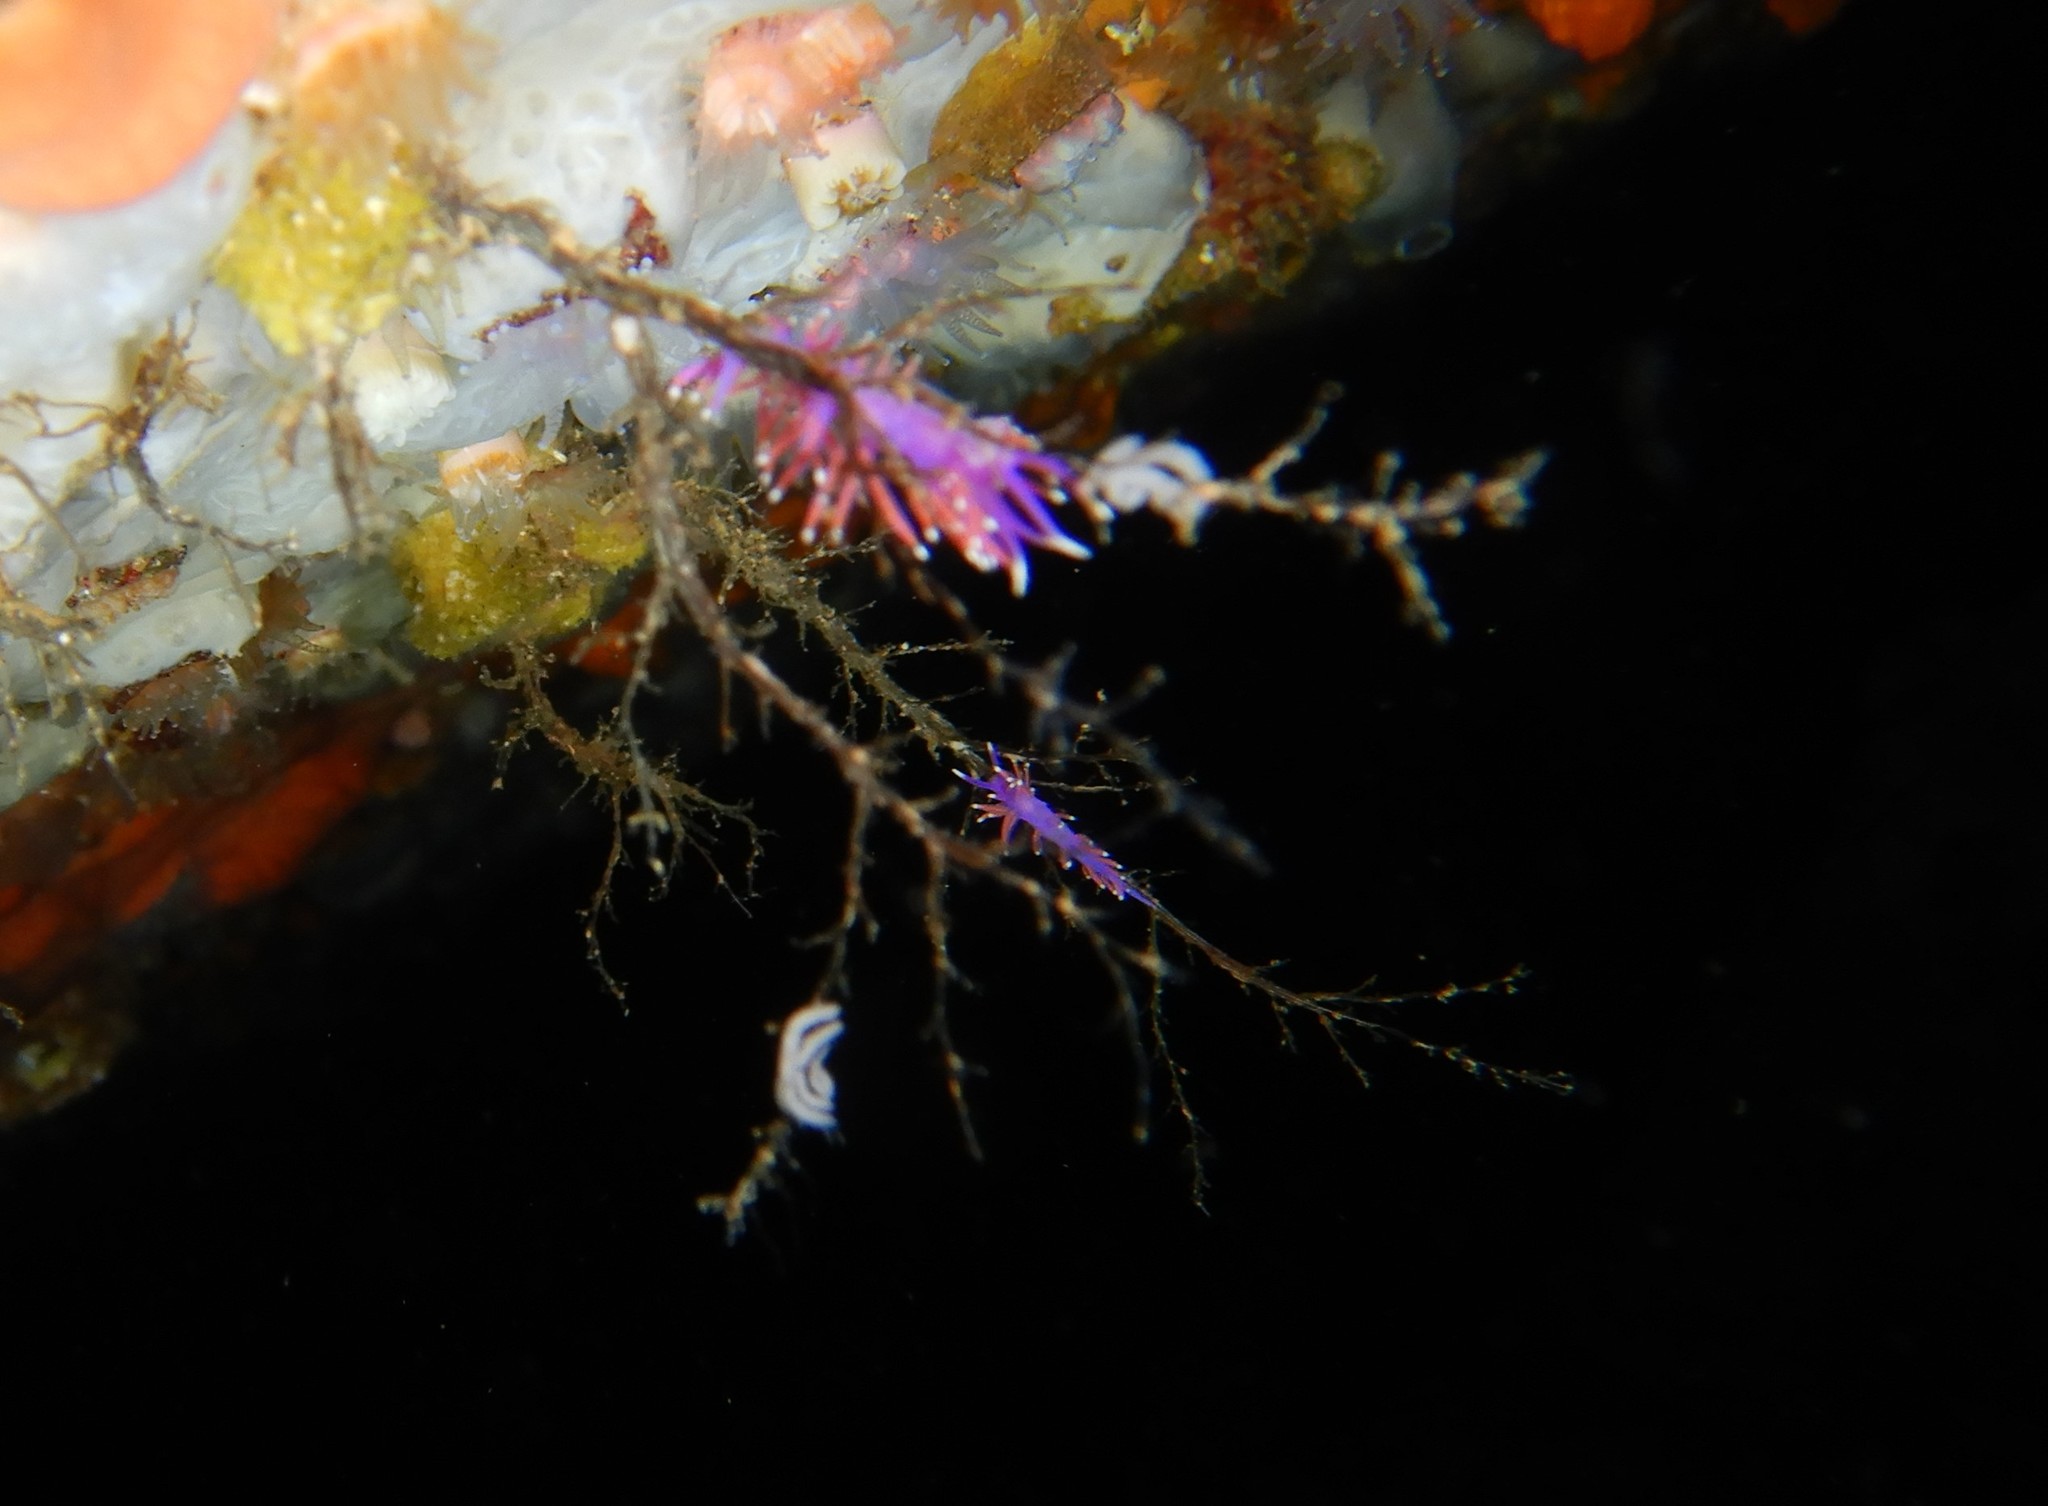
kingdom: Animalia
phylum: Mollusca
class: Gastropoda
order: Nudibranchia
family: Flabellinidae
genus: Edmundsella
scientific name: Edmundsella pedata
